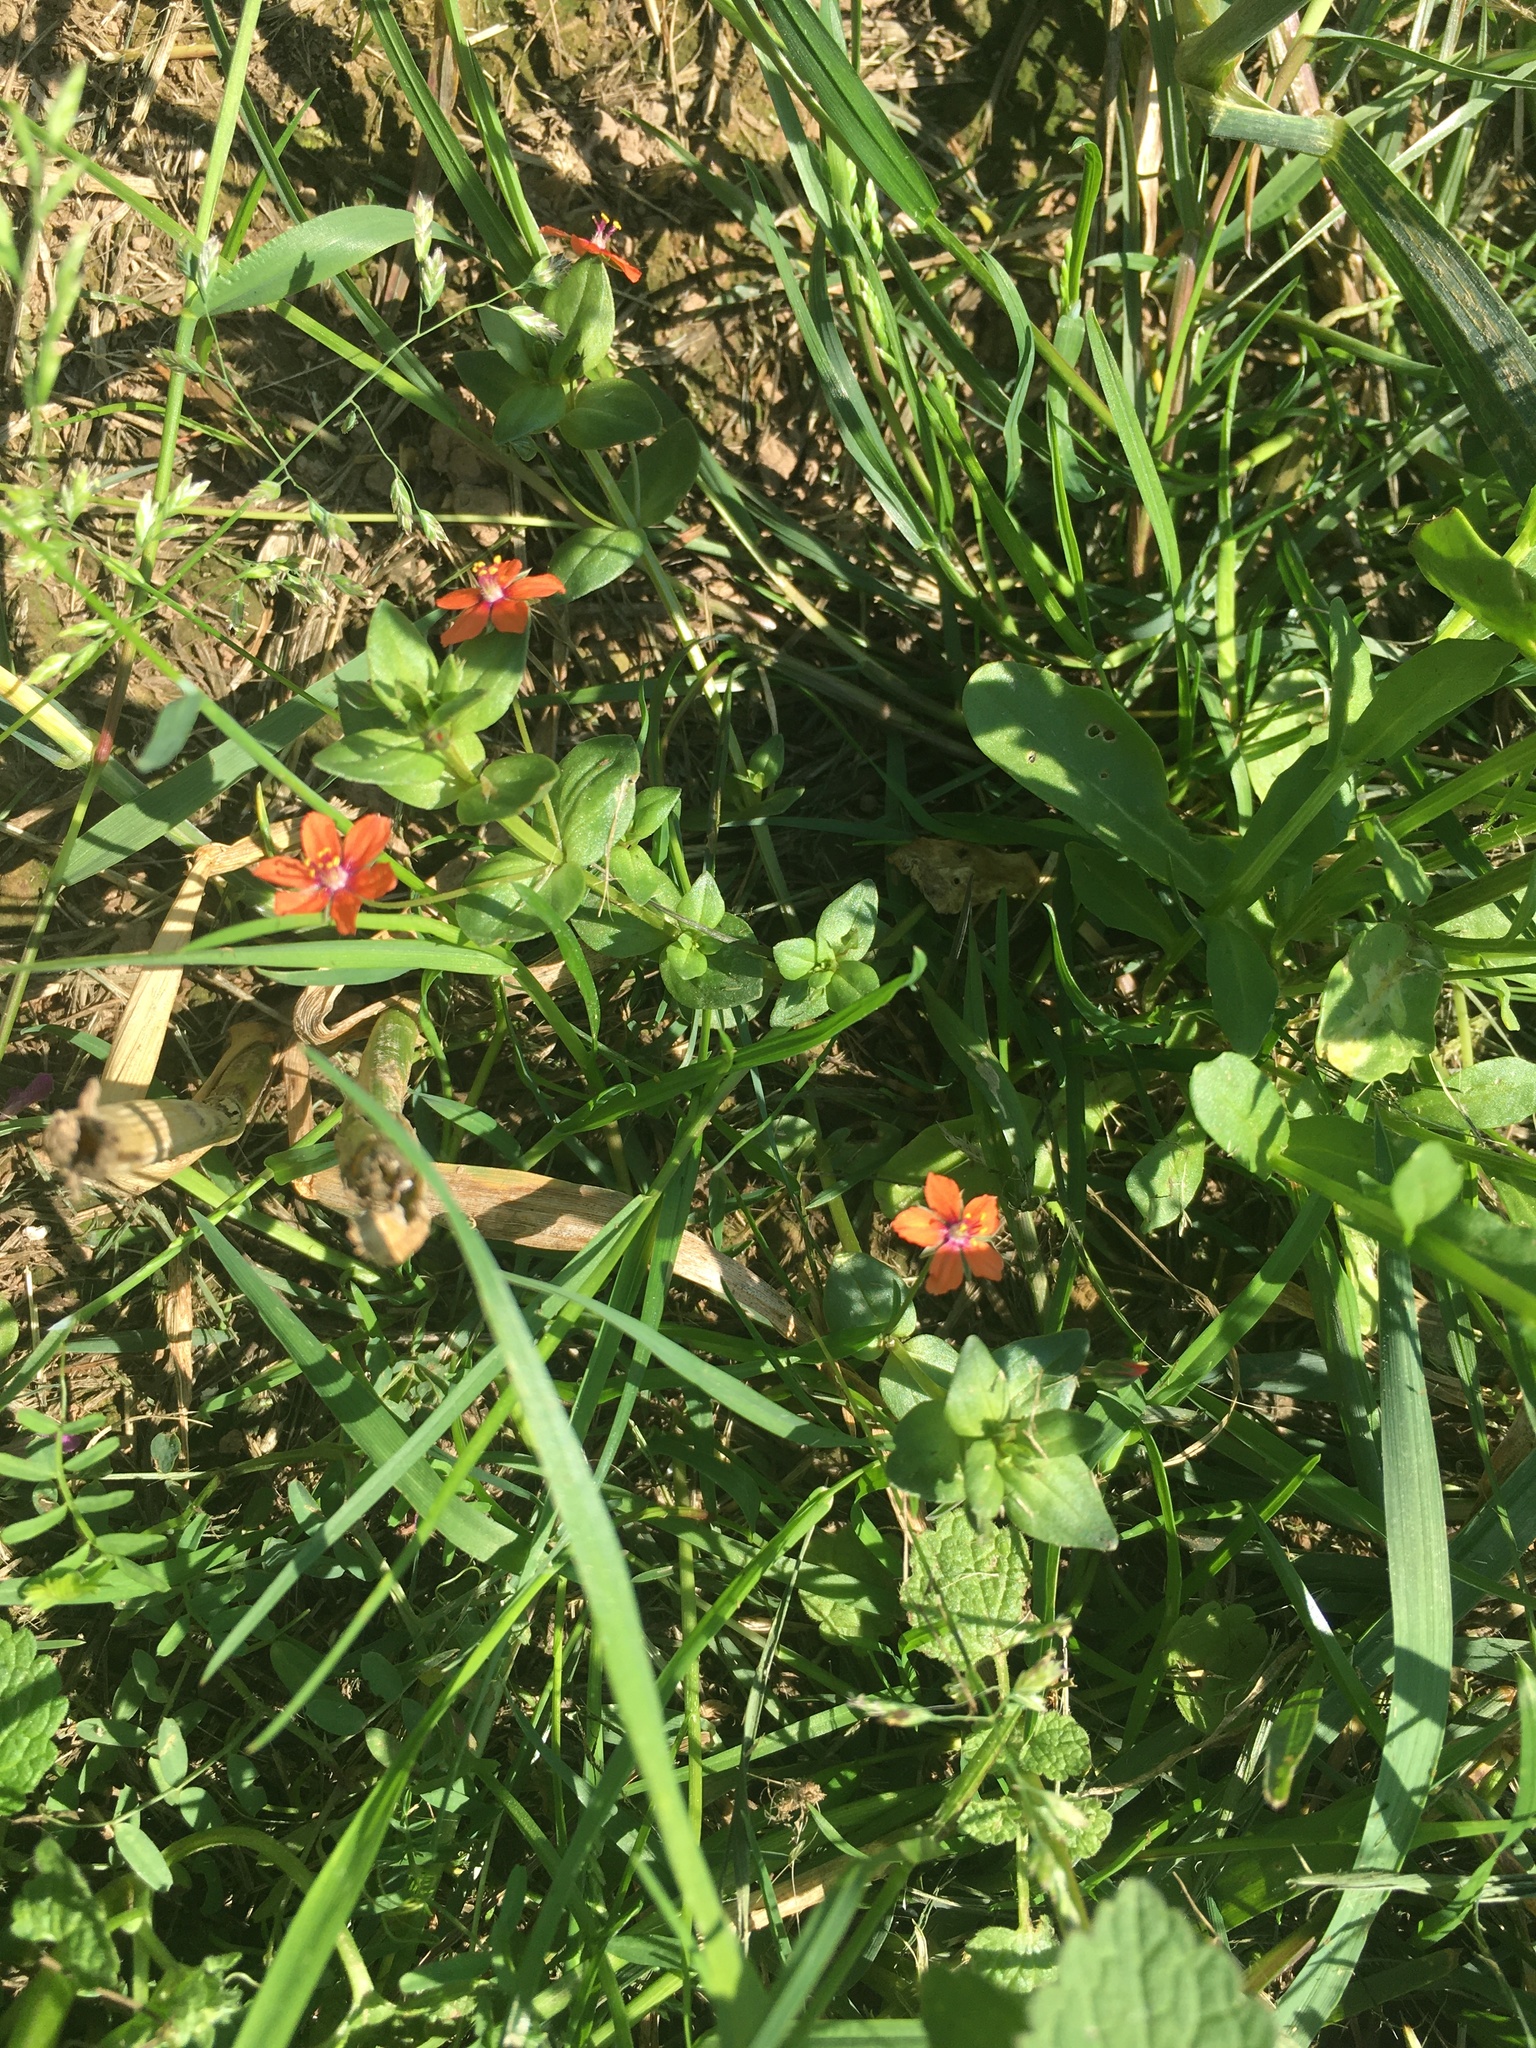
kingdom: Plantae
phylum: Tracheophyta
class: Magnoliopsida
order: Ericales
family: Primulaceae
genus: Lysimachia
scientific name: Lysimachia arvensis
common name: Scarlet pimpernel
